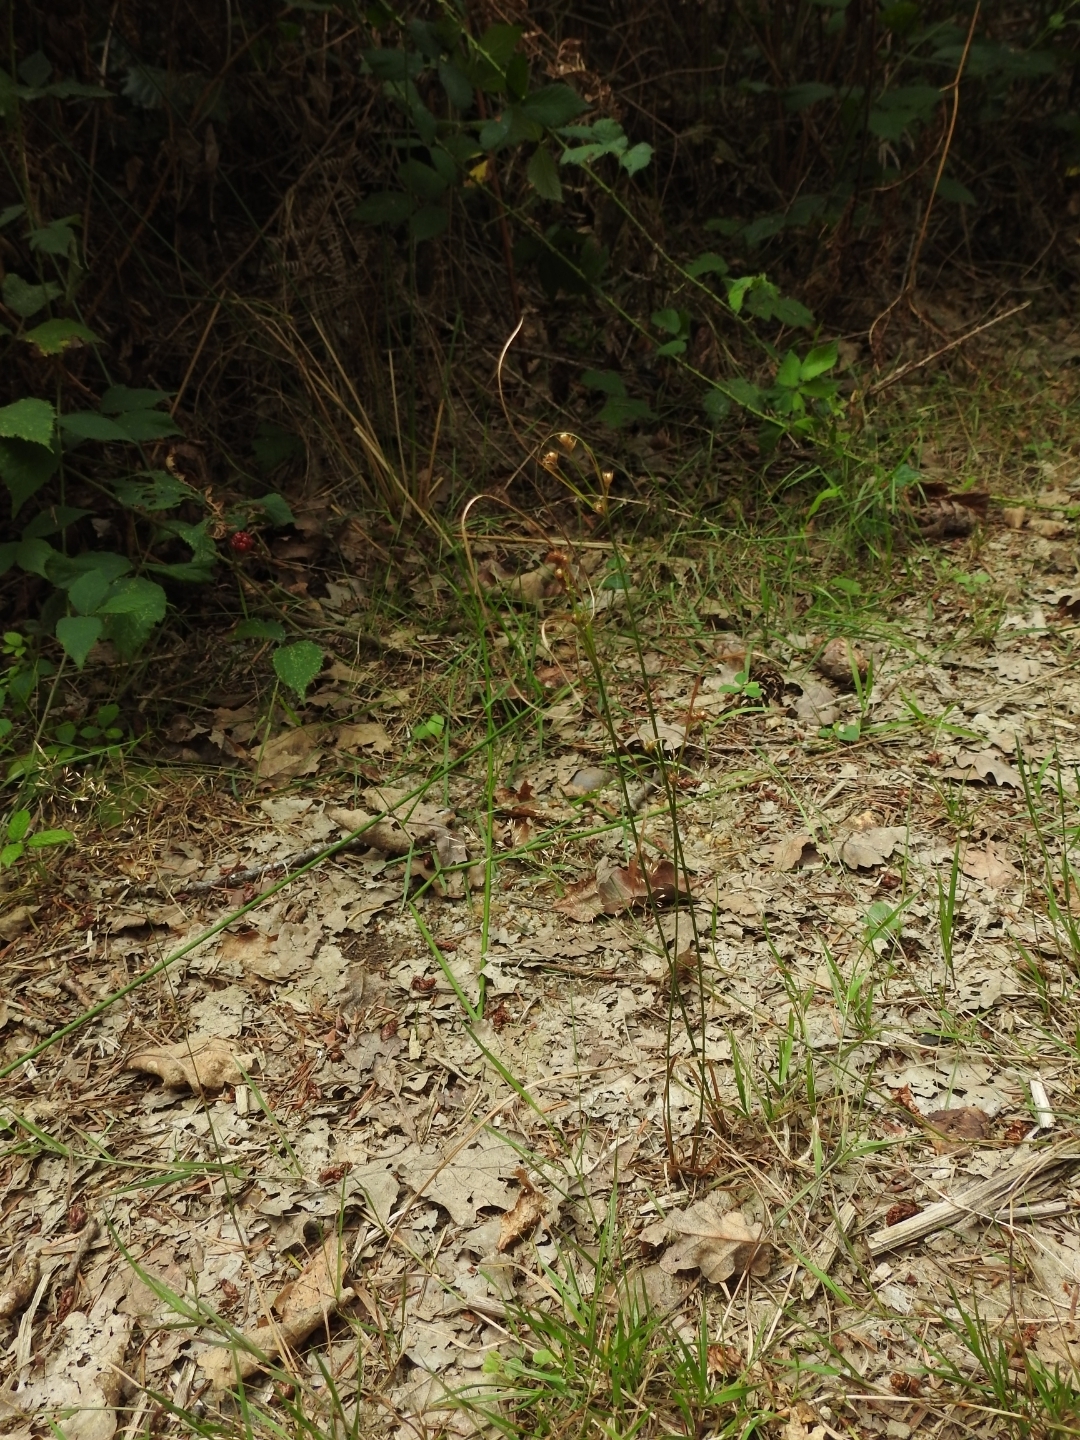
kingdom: Plantae
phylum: Tracheophyta
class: Liliopsida
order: Poales
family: Juncaceae
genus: Juncus
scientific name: Juncus tenuis
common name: Slender rush
